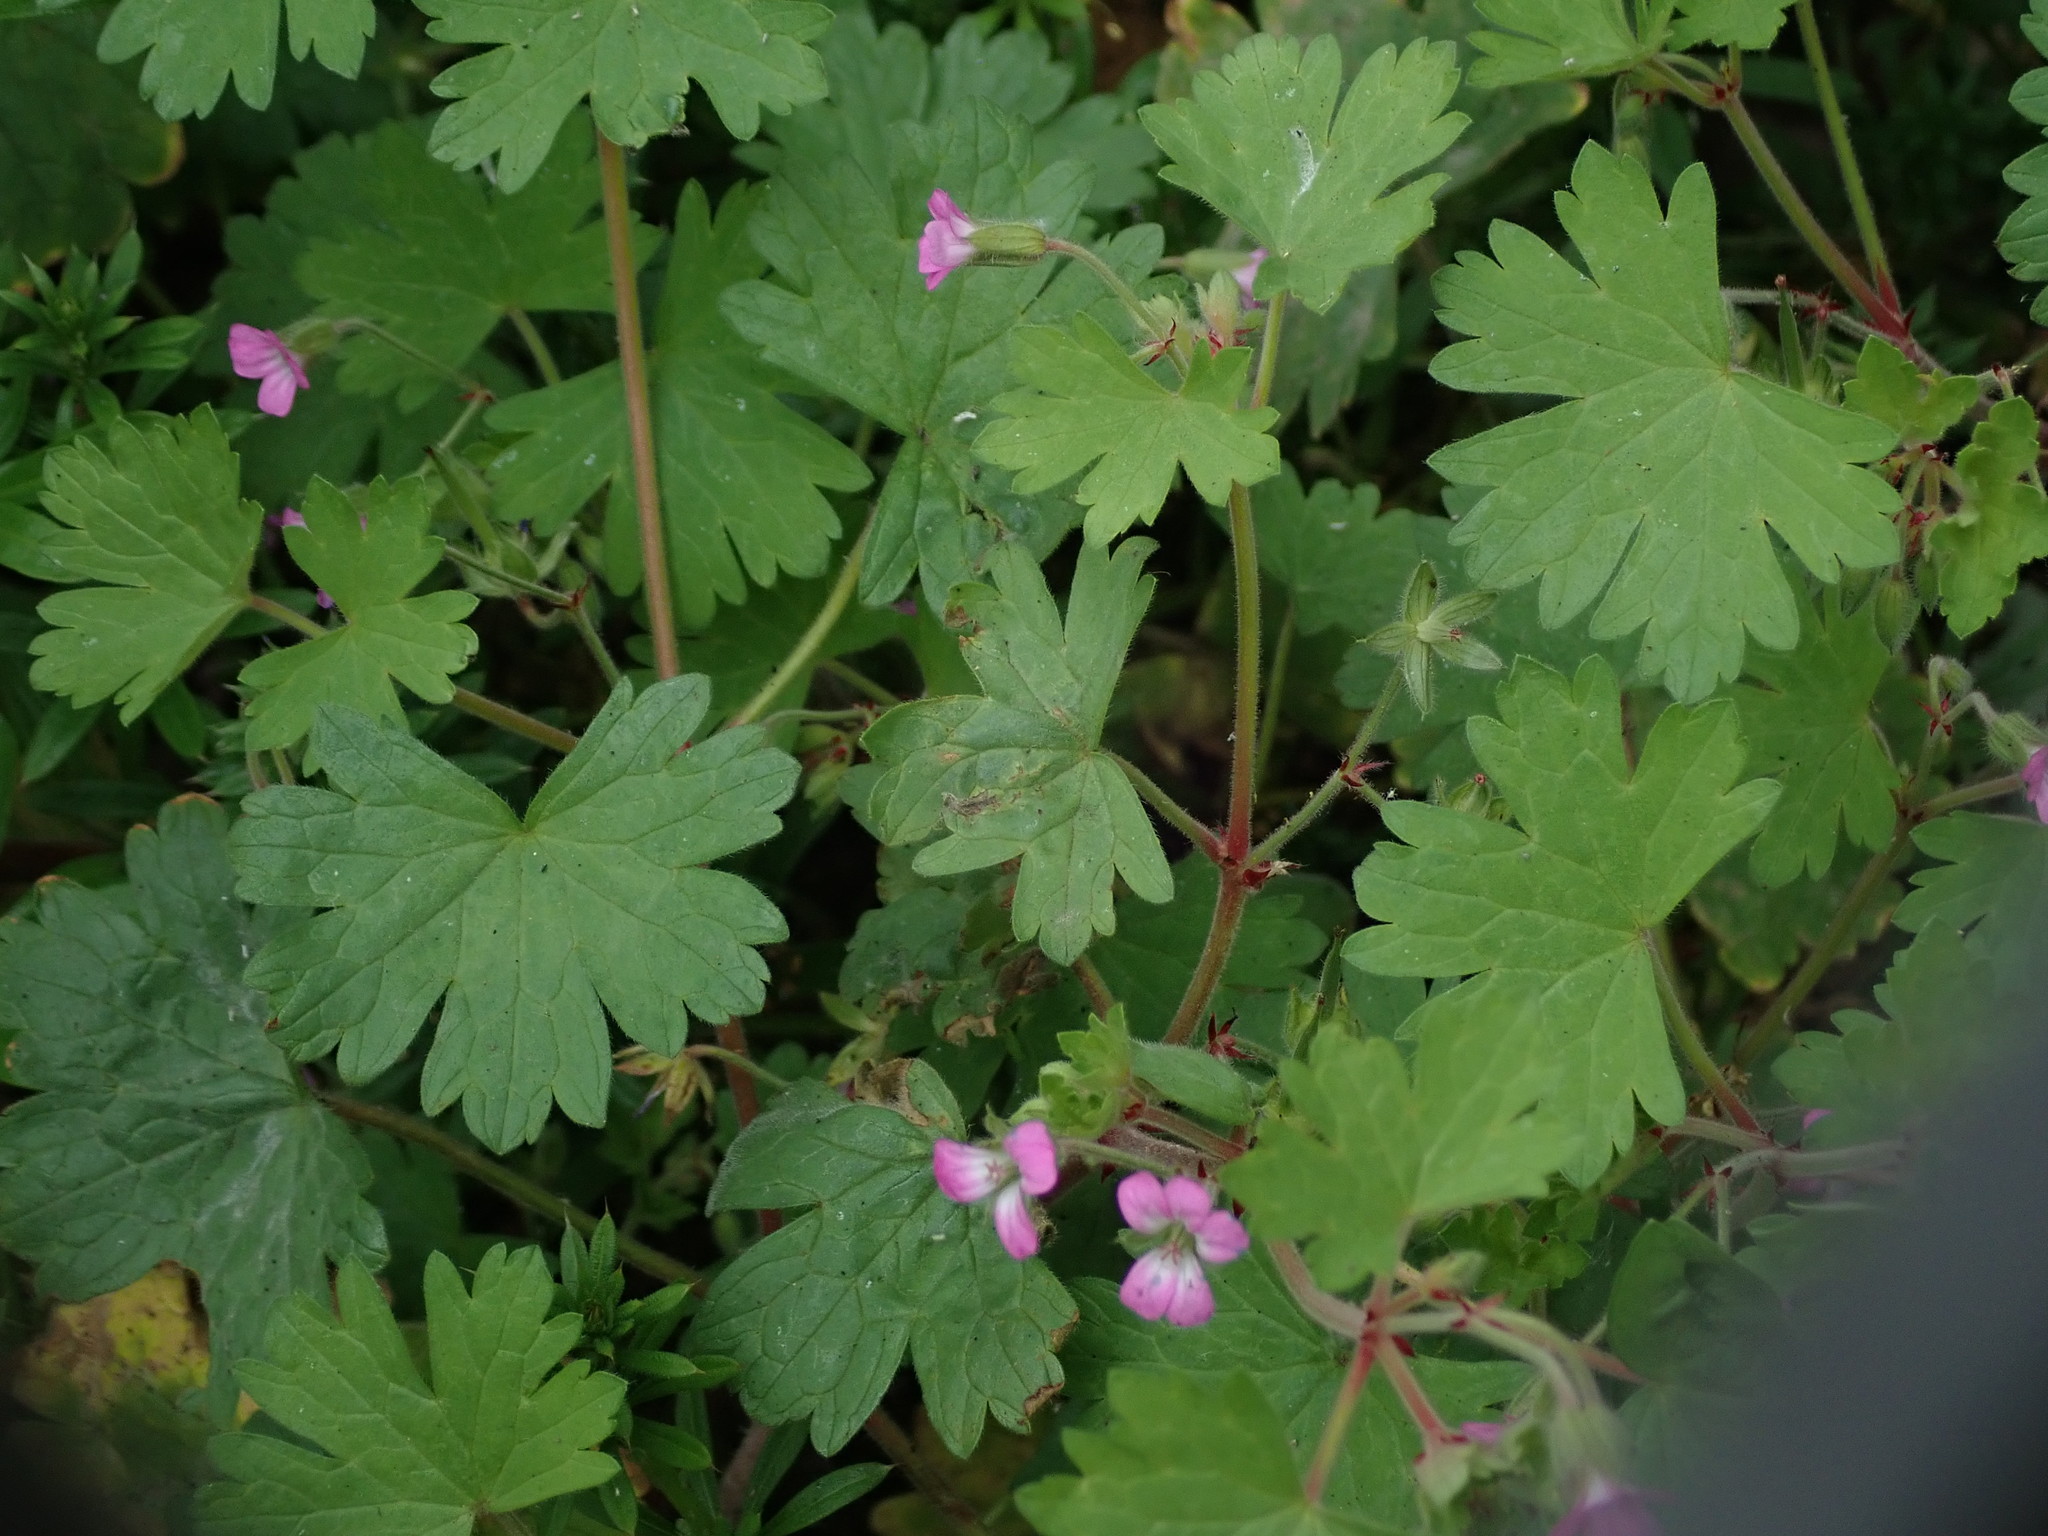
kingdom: Plantae
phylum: Tracheophyta
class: Magnoliopsida
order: Geraniales
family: Geraniaceae
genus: Geranium
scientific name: Geranium rotundifolium
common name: Round-leaved crane's-bill
